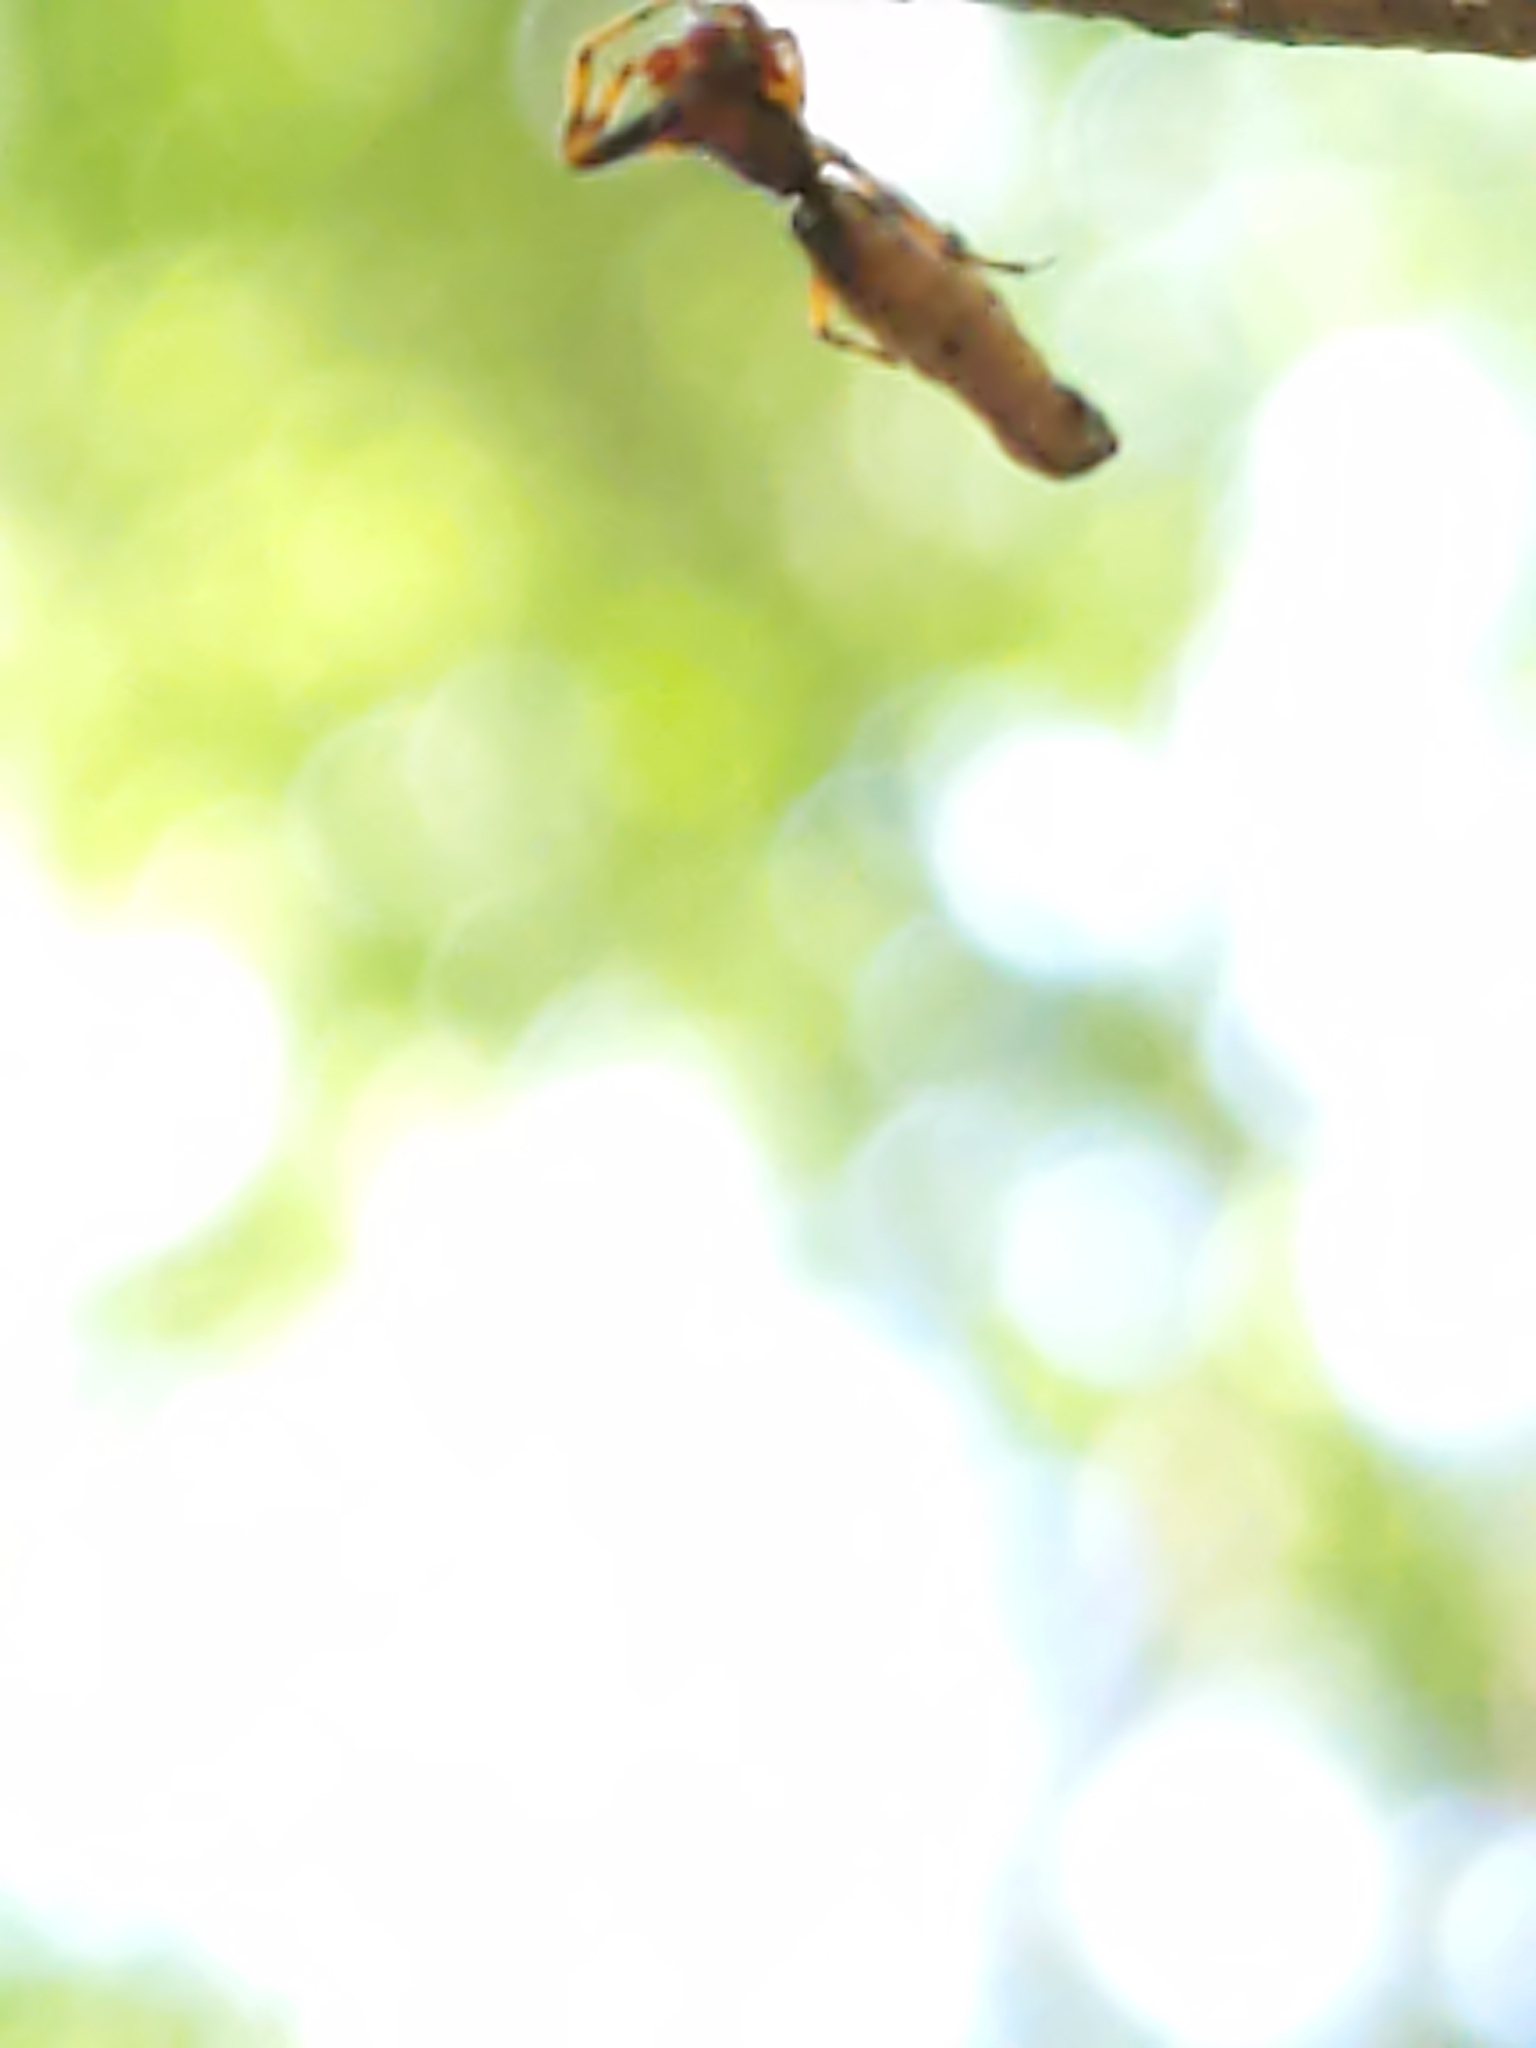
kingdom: Animalia
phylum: Arthropoda
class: Arachnida
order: Araneae
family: Araneidae
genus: Micrathena
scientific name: Micrathena gracilis
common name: Orb weavers
